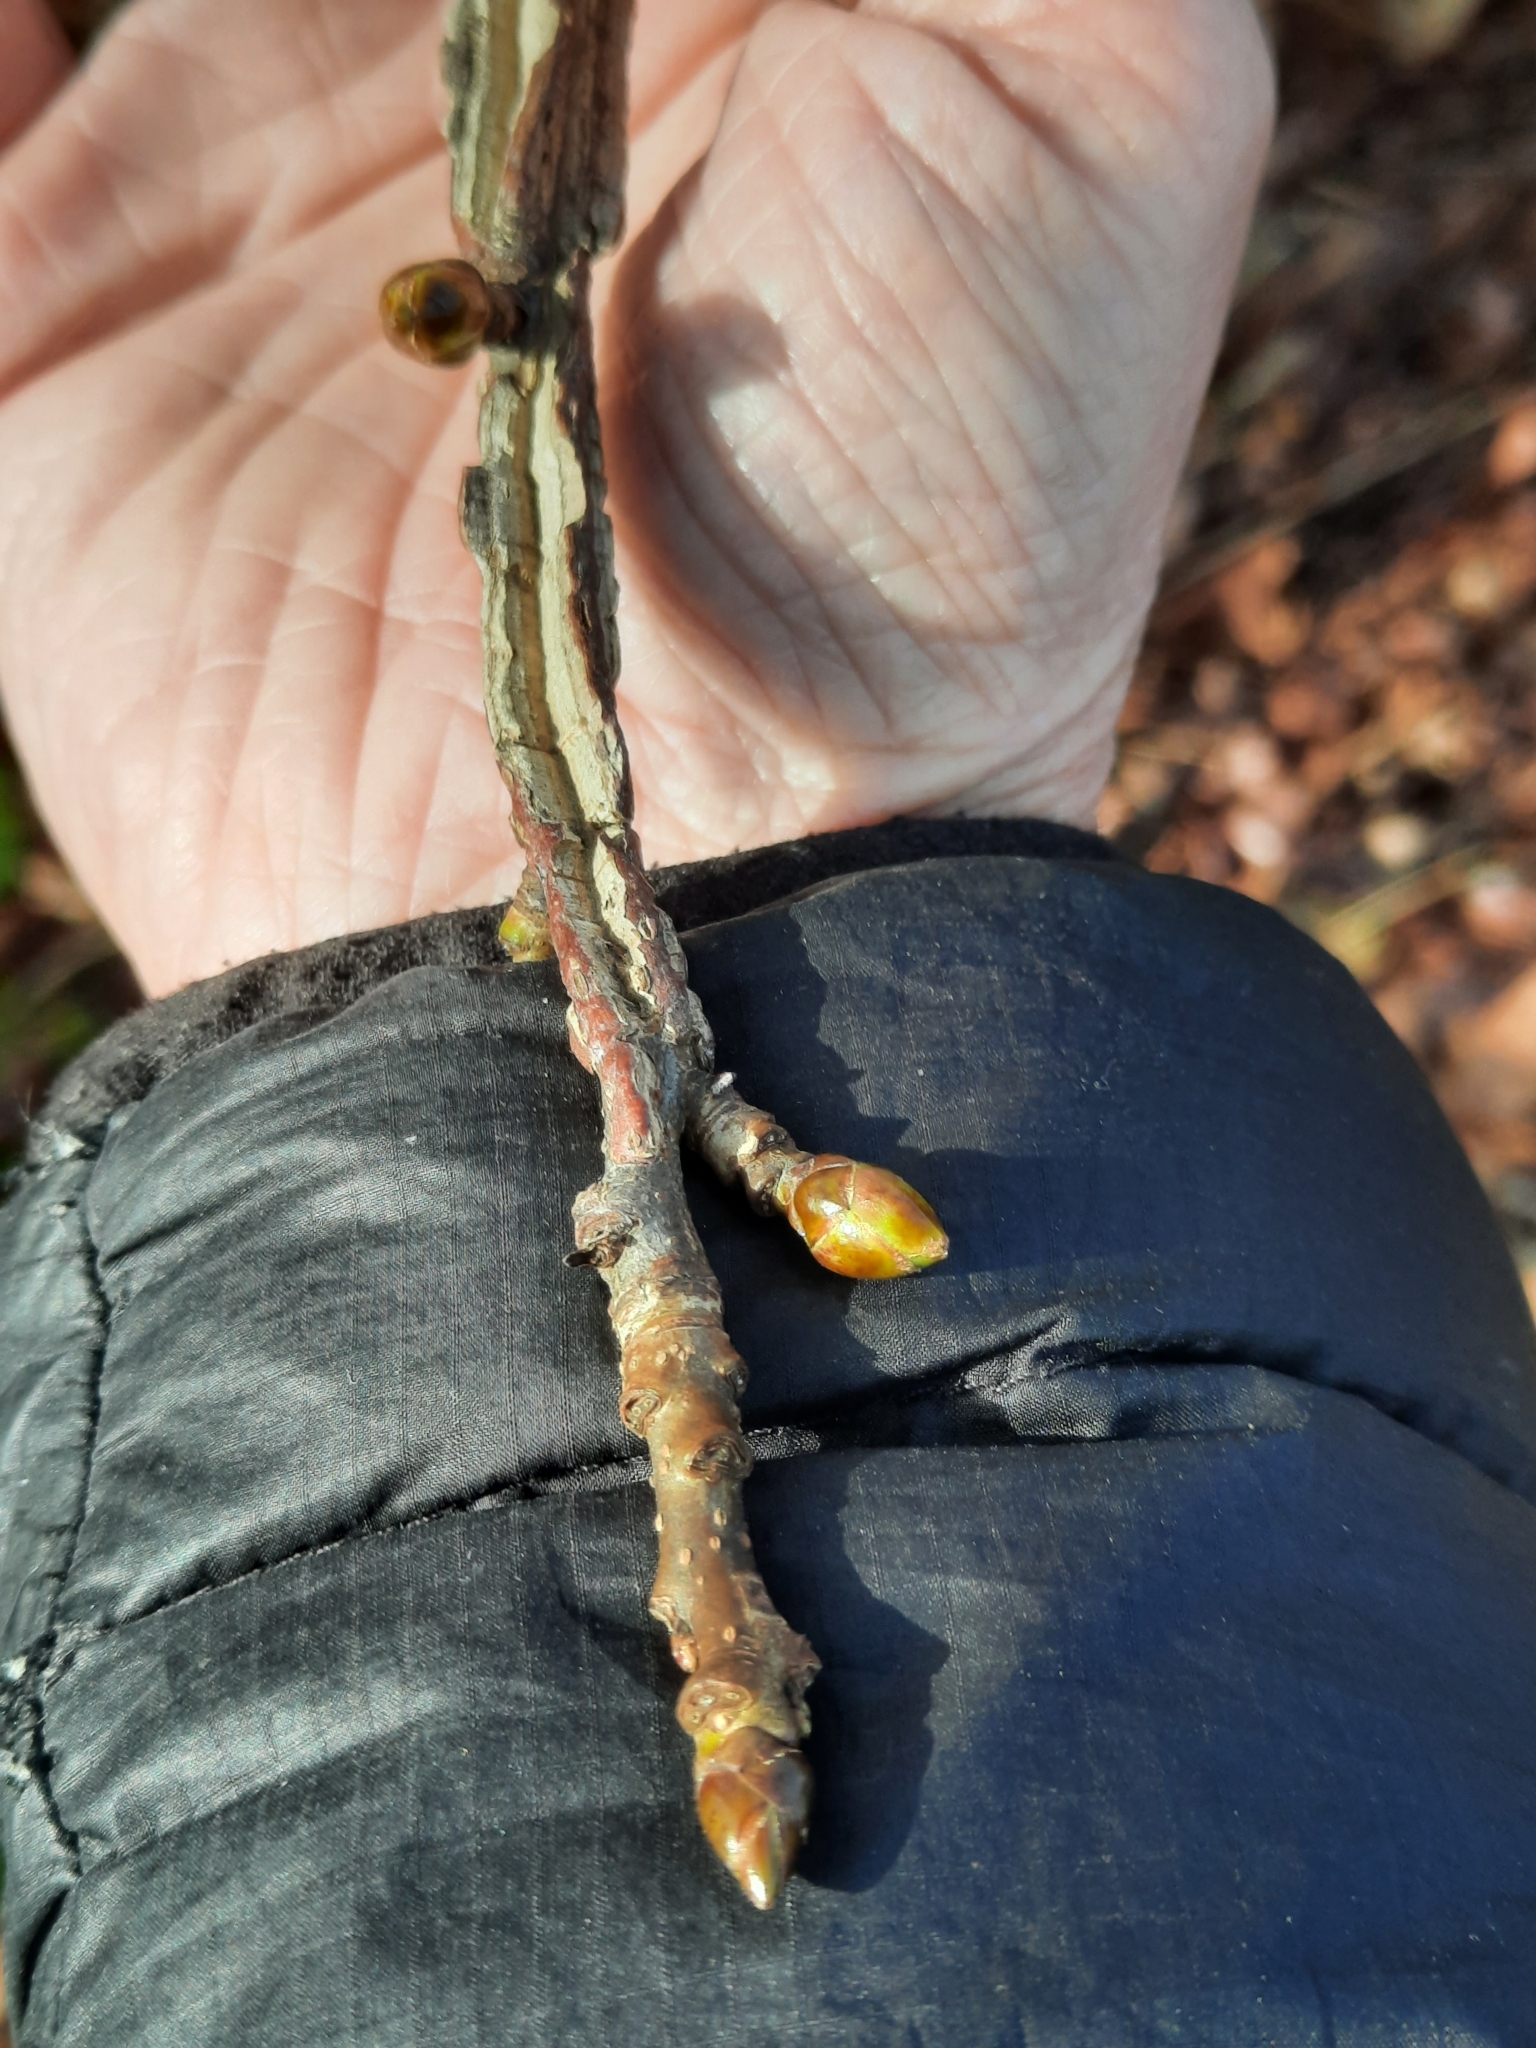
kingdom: Plantae
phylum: Tracheophyta
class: Magnoliopsida
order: Saxifragales
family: Altingiaceae
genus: Liquidambar
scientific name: Liquidambar styraciflua
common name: Sweet gum
